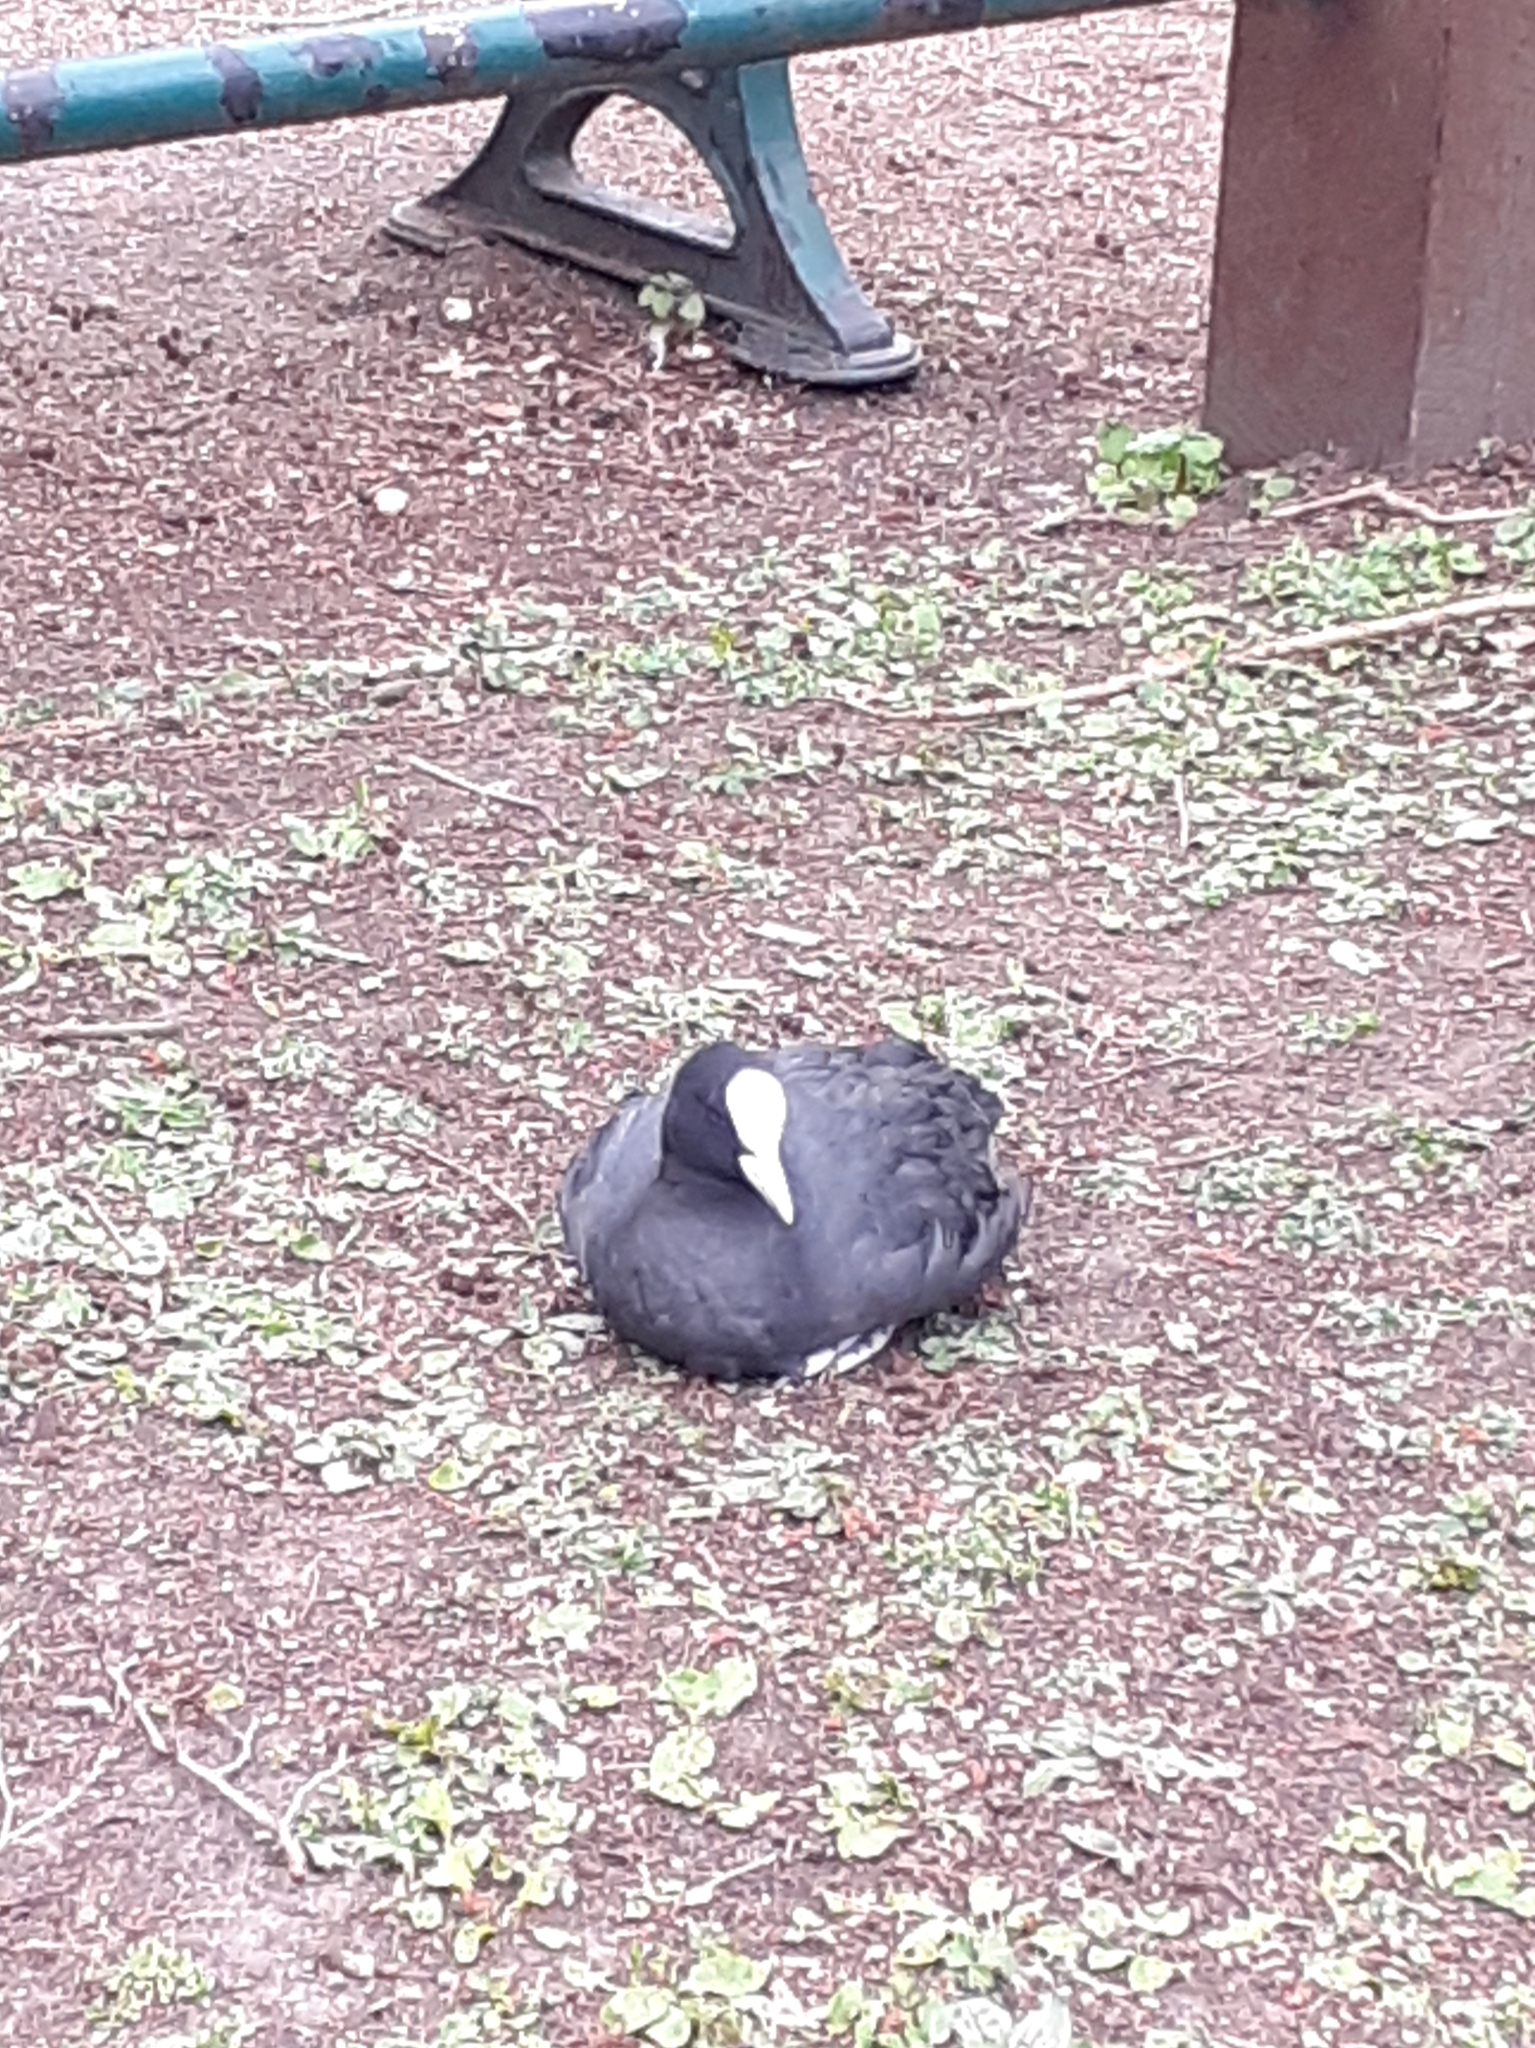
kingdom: Animalia
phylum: Chordata
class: Aves
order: Gruiformes
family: Rallidae
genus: Fulica
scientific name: Fulica atra
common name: Eurasian coot
